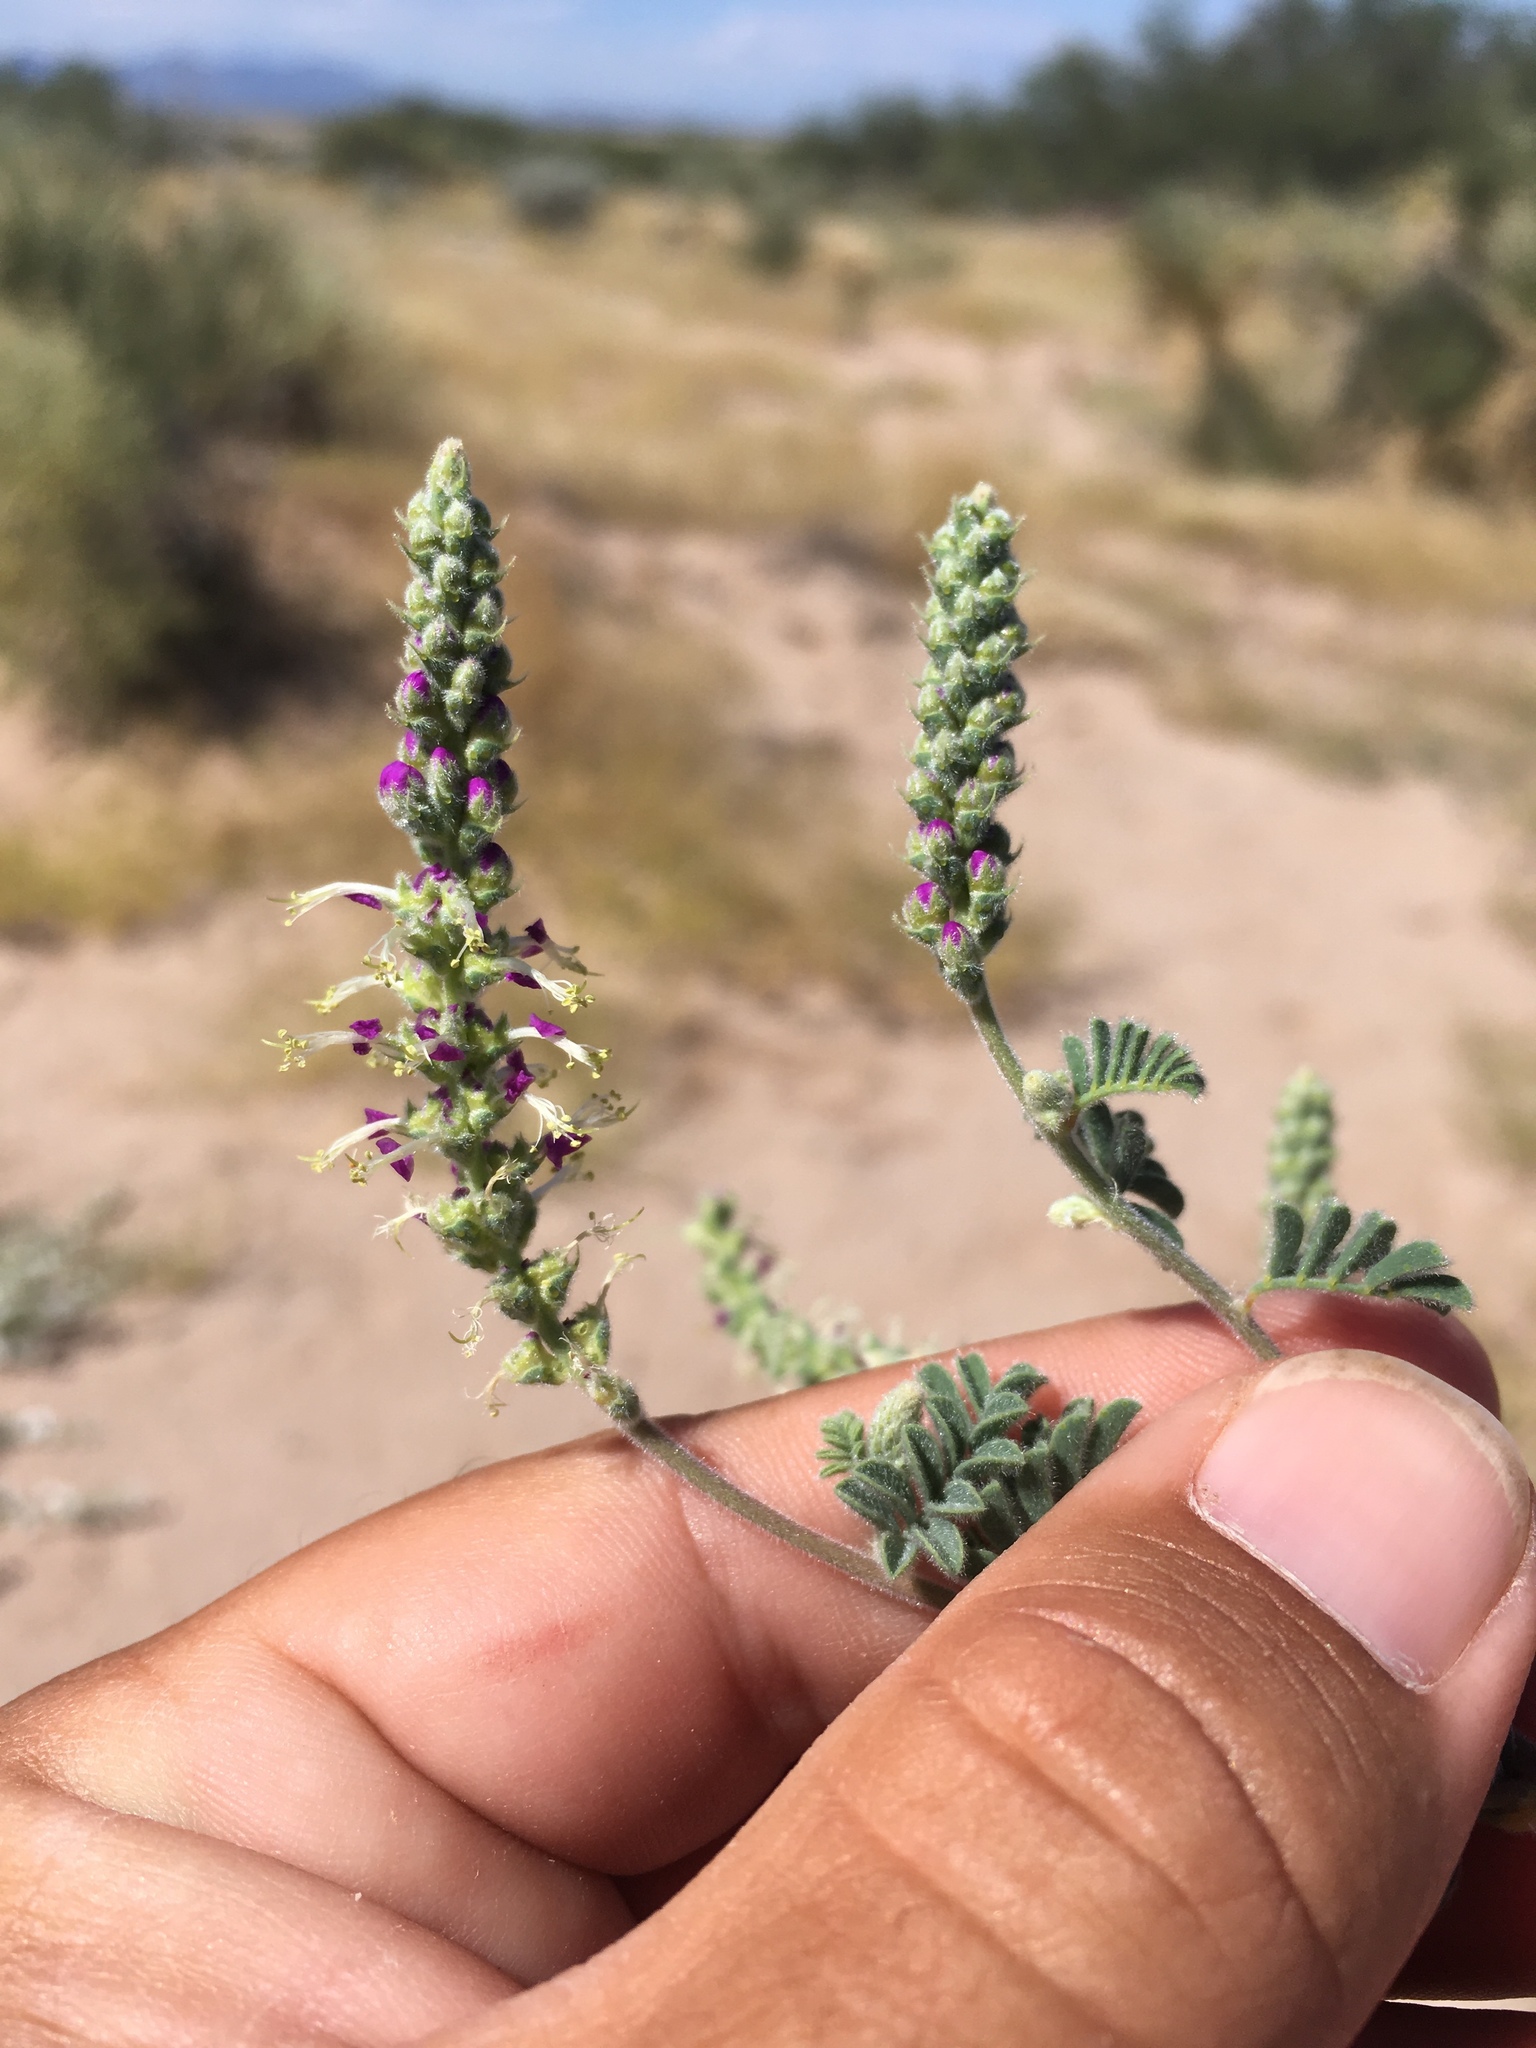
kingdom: Plantae
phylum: Tracheophyta
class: Magnoliopsida
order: Fabales
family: Fabaceae
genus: Dalea
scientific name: Dalea lanata
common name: Woolly dalea
